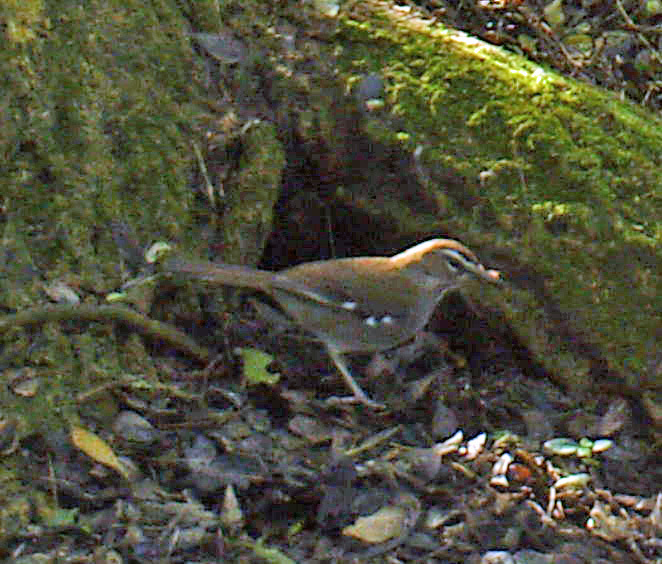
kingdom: Animalia
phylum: Chordata
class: Aves
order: Passeriformes
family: Muscicapidae
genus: Erythropygia
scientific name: Erythropygia signata
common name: Brown scrub robin
